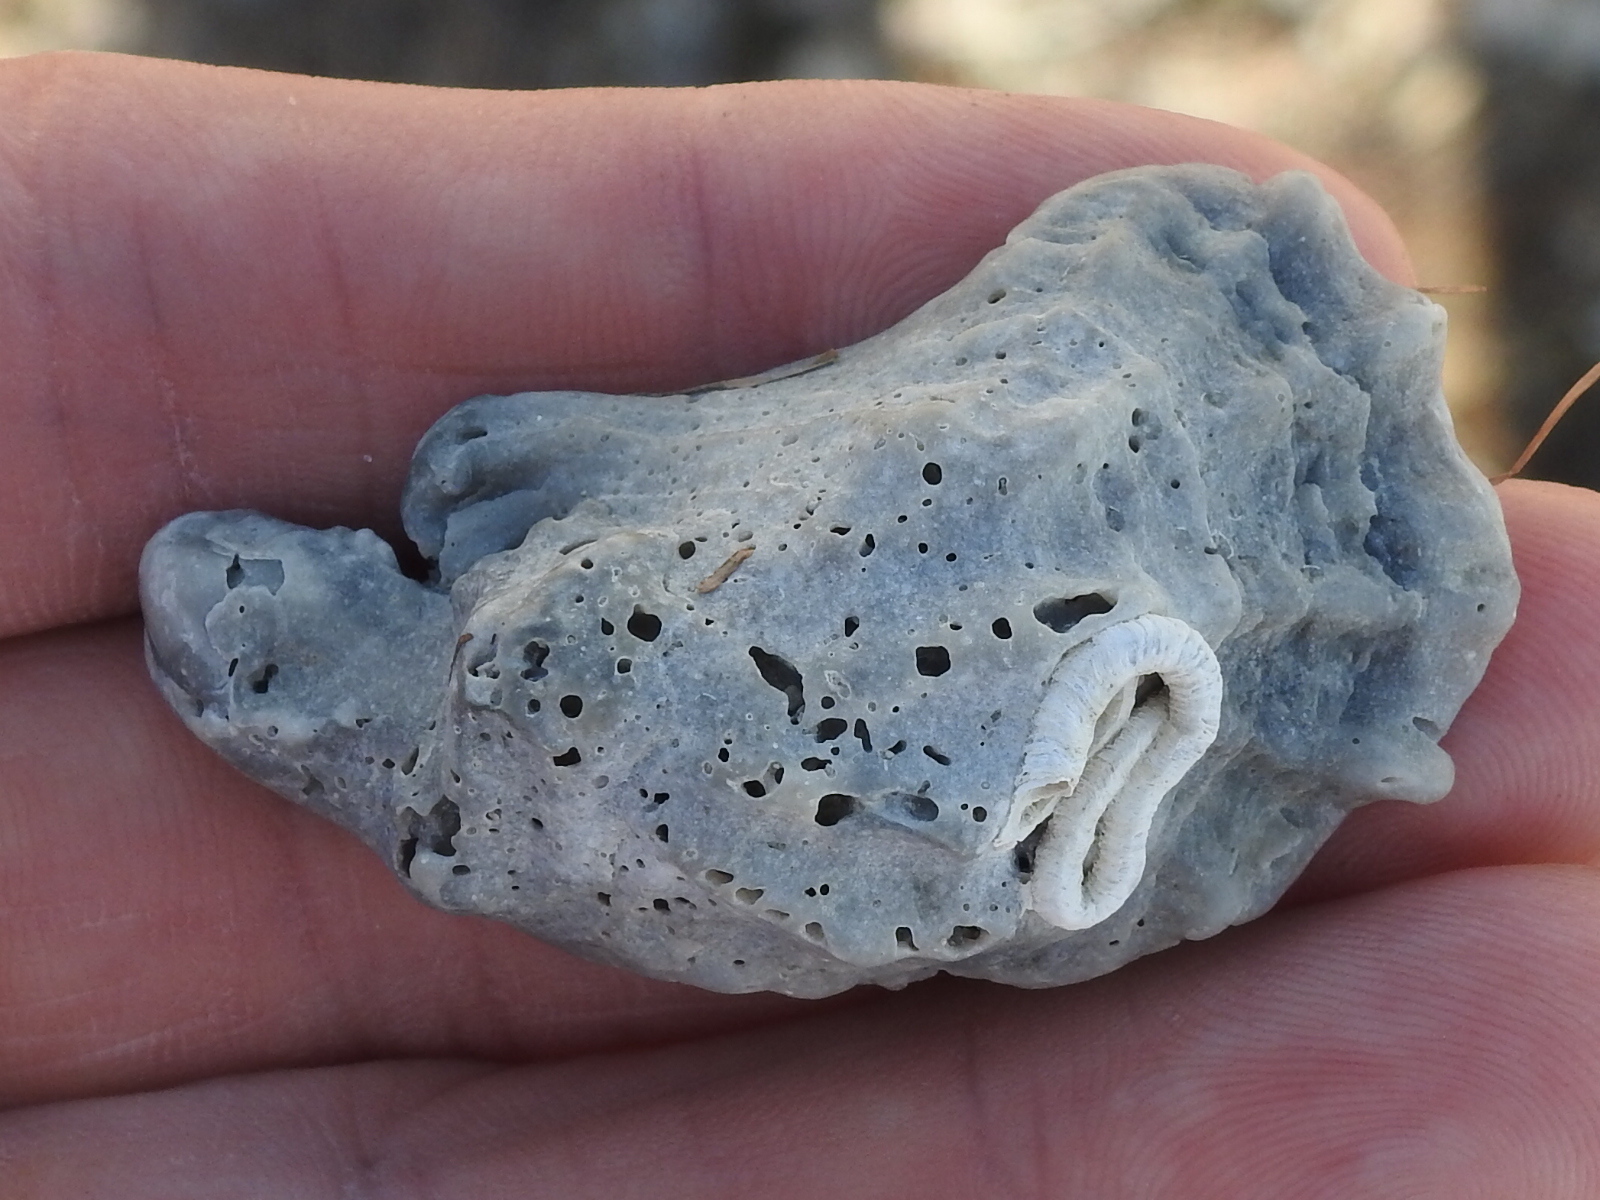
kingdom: Animalia
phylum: Mollusca
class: Bivalvia
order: Ostreida
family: Ostreidae
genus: Crassostrea
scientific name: Crassostrea virginica
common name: American oyster
